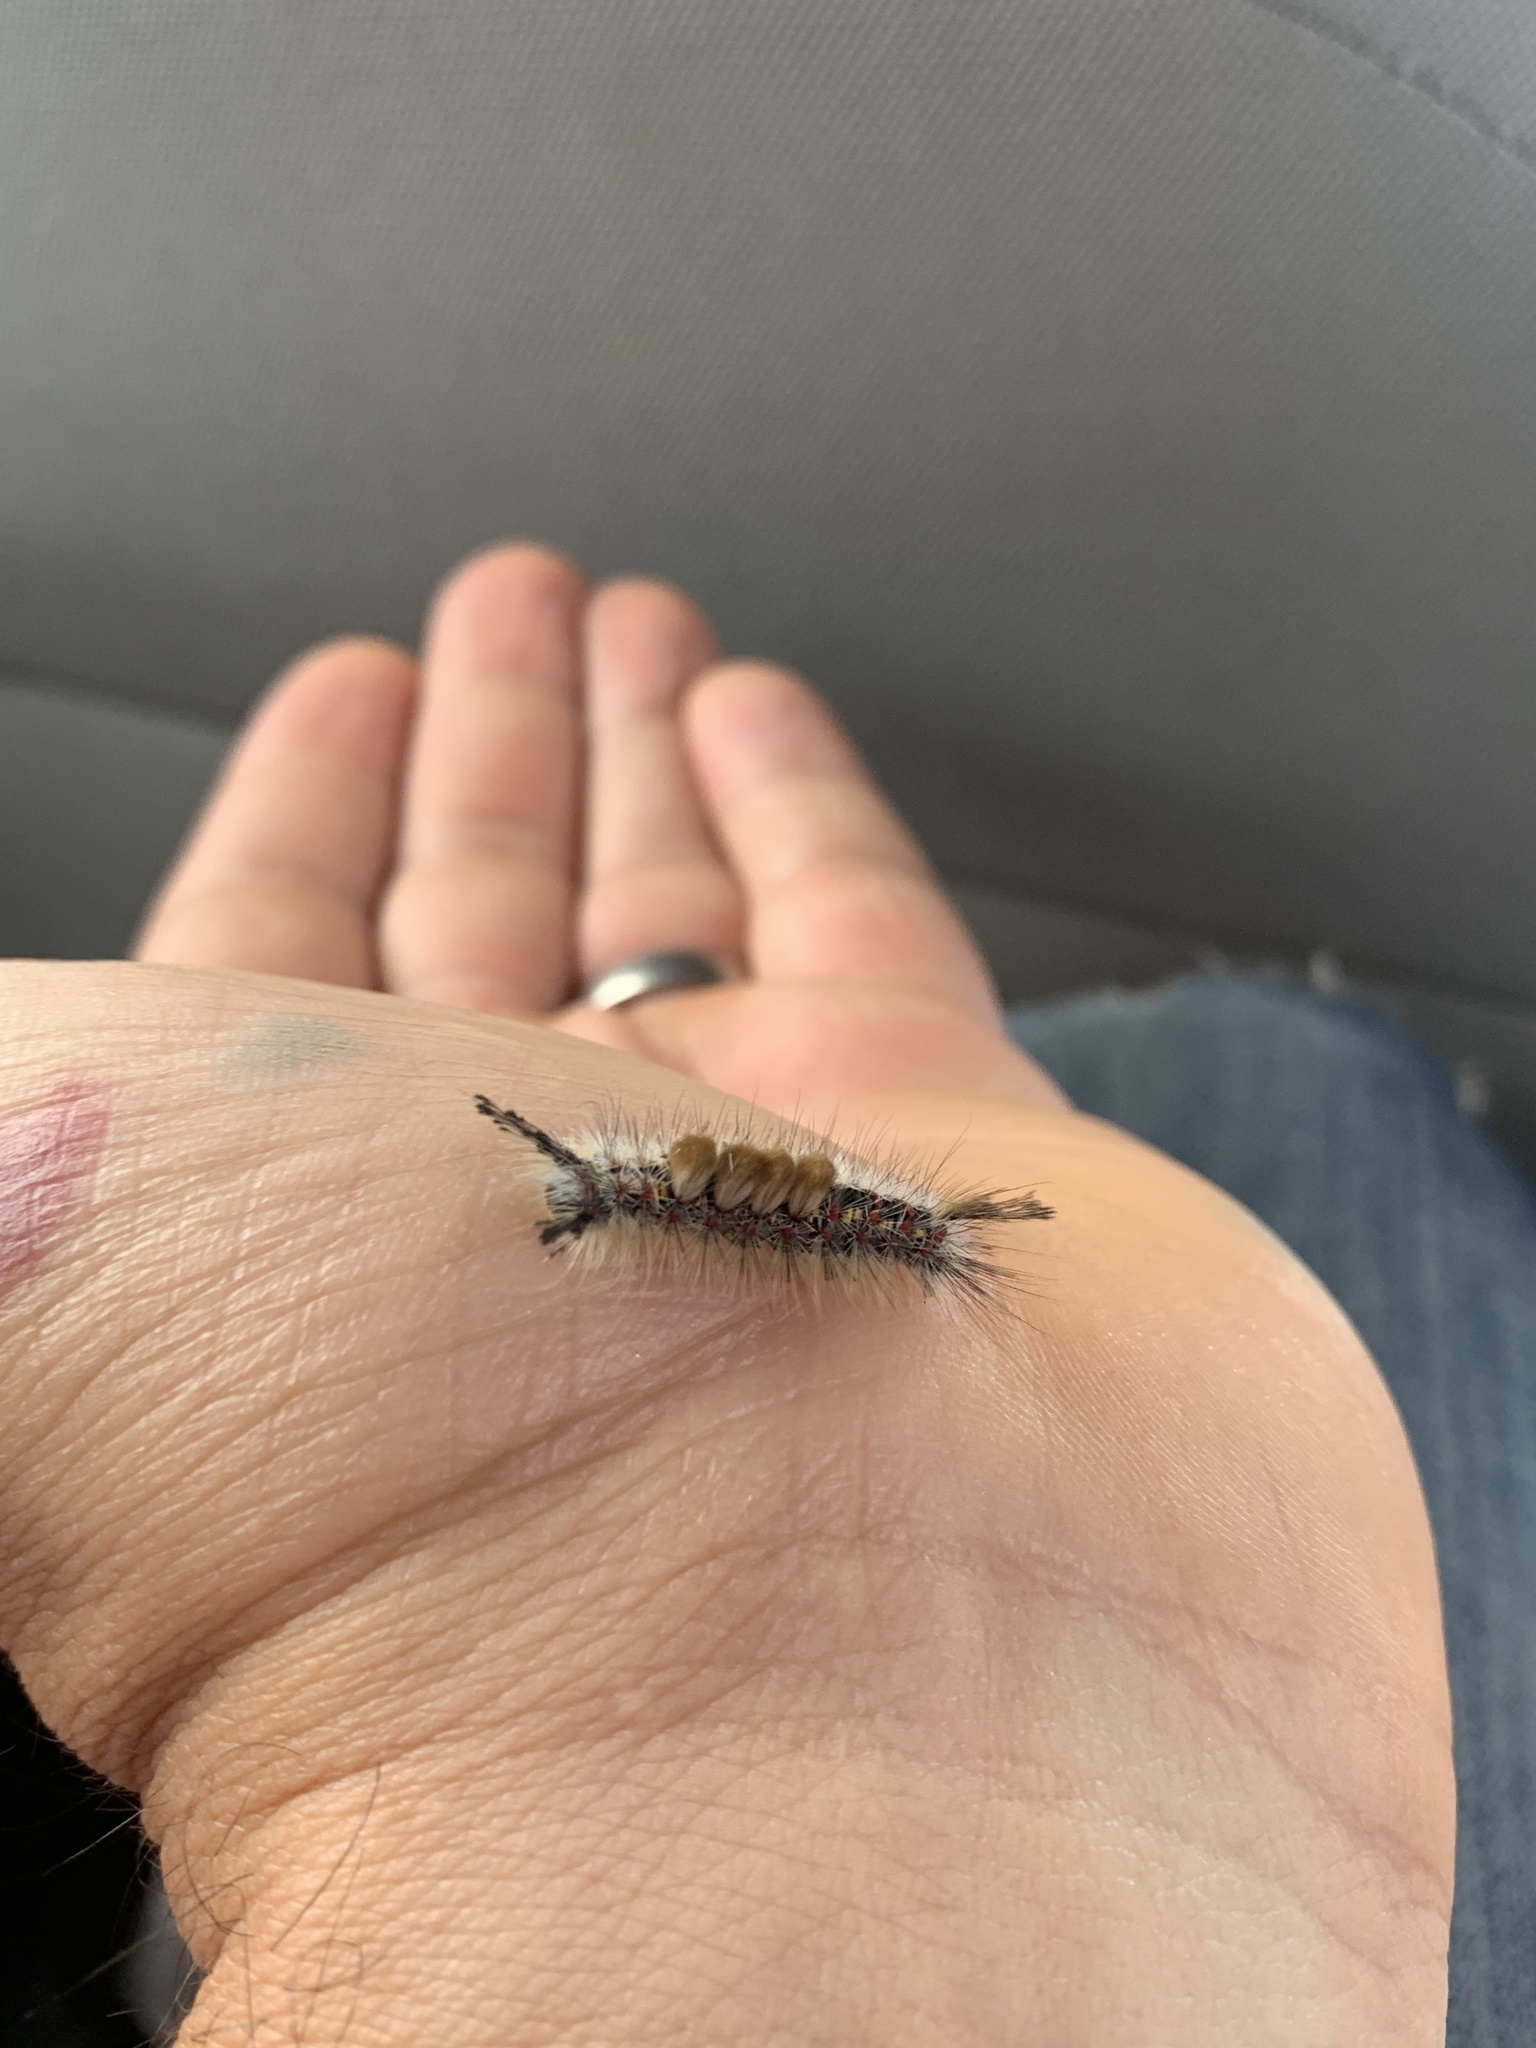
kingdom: Animalia
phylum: Arthropoda
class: Insecta
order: Lepidoptera
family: Erebidae
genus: Orgyia
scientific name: Orgyia
